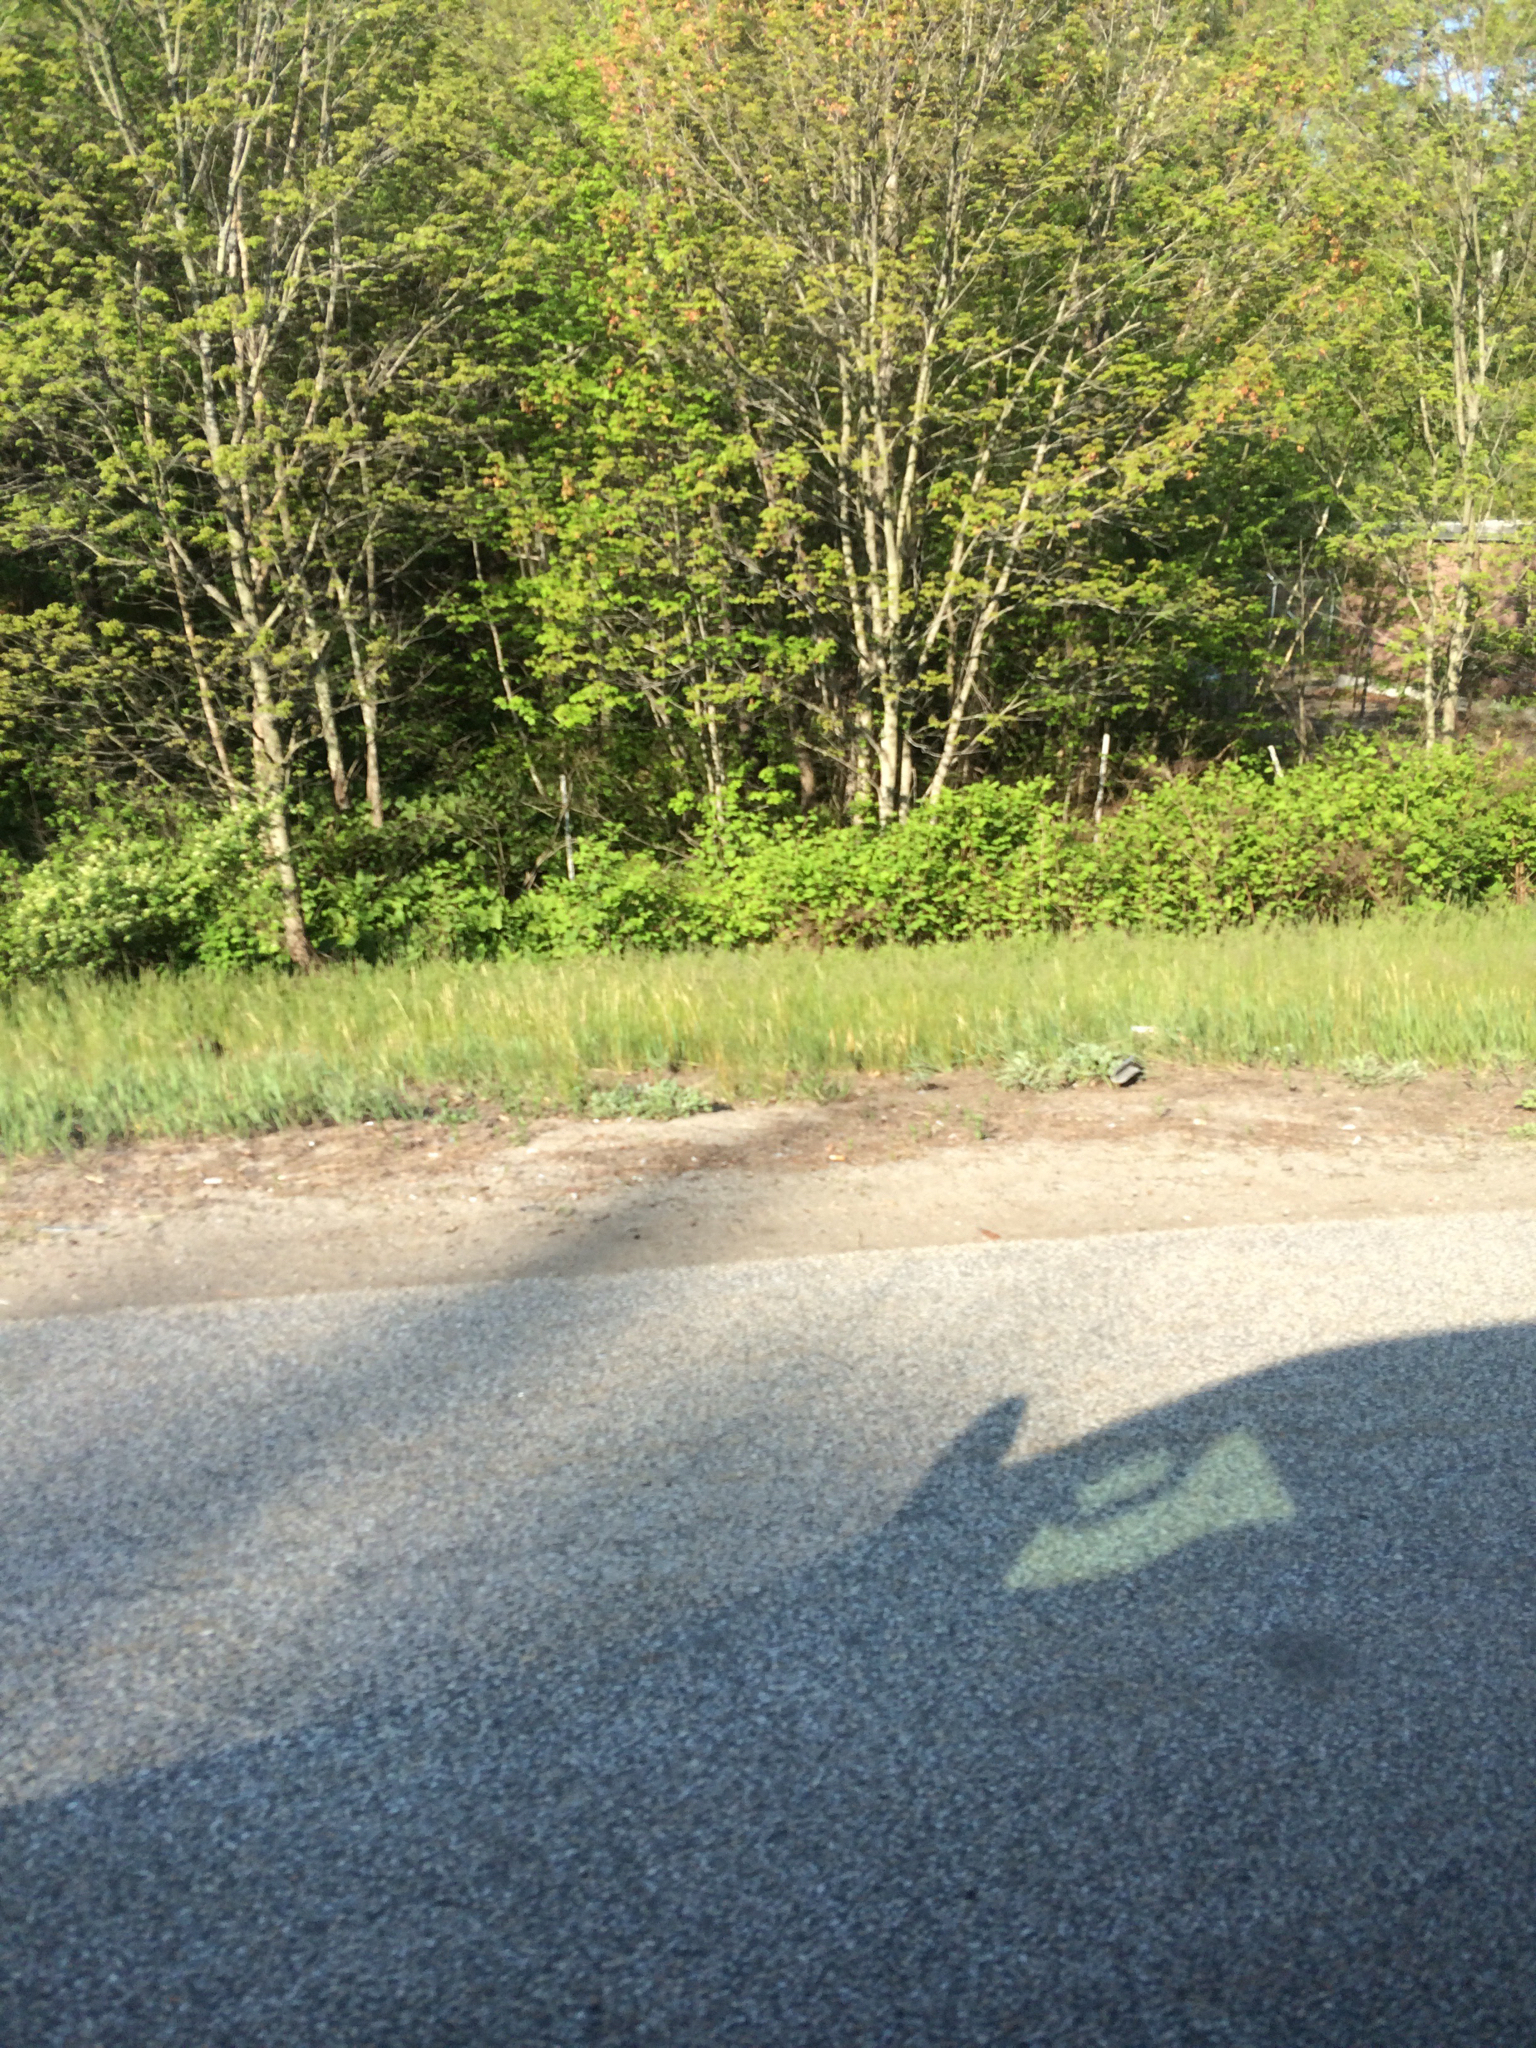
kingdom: Plantae
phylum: Tracheophyta
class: Magnoliopsida
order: Caryophyllales
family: Polygonaceae
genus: Reynoutria
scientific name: Reynoutria japonica
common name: Japanese knotweed
